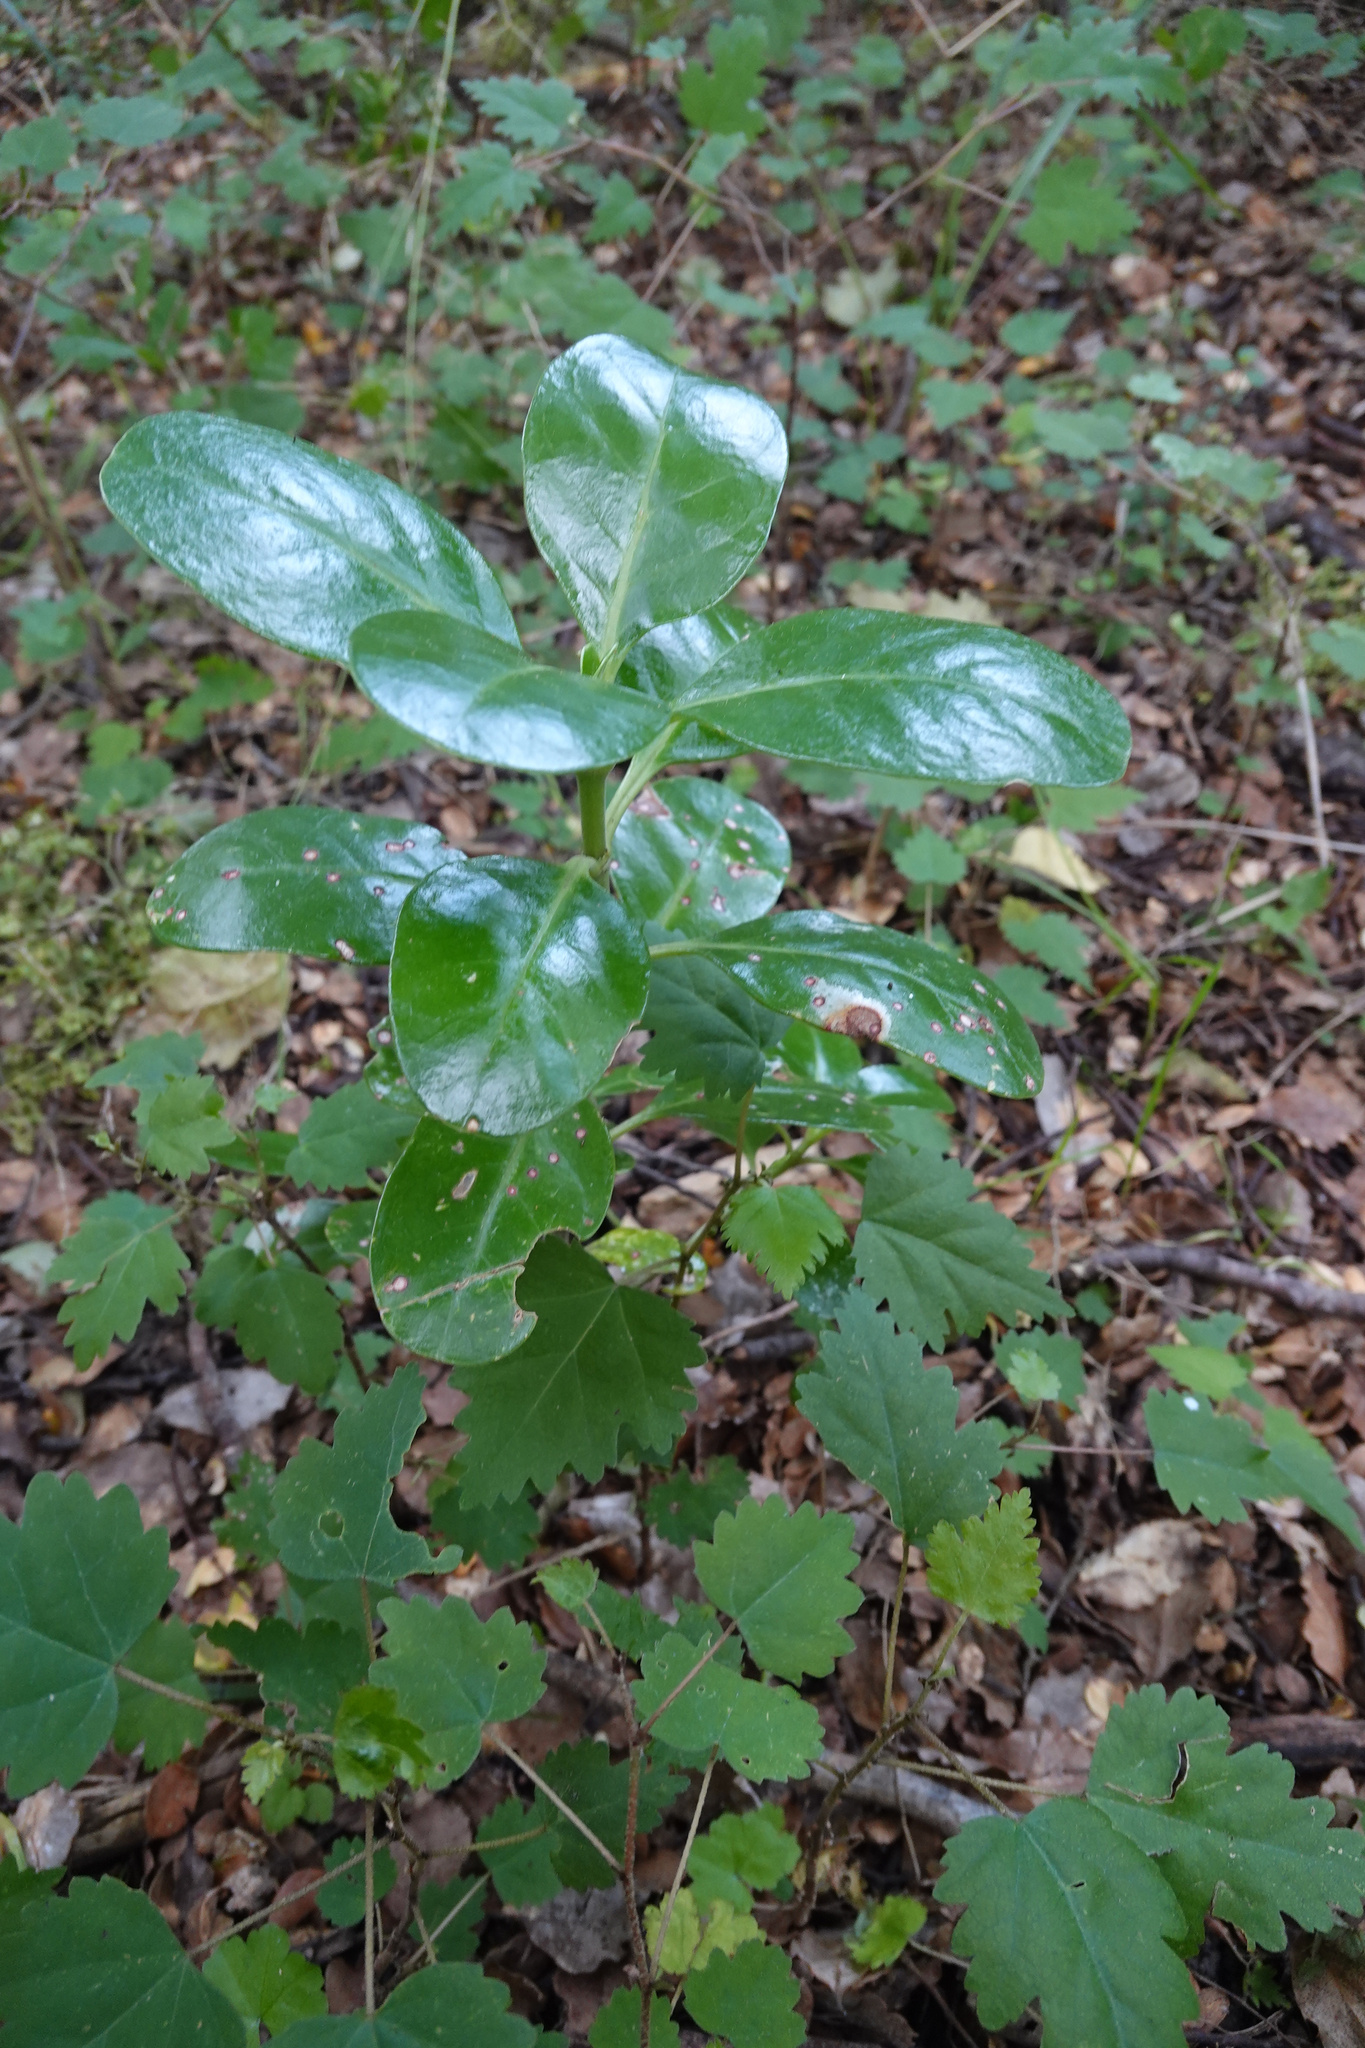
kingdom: Plantae
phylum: Tracheophyta
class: Magnoliopsida
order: Gentianales
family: Rubiaceae
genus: Coprosma
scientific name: Coprosma repens
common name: Tree bedstraw
